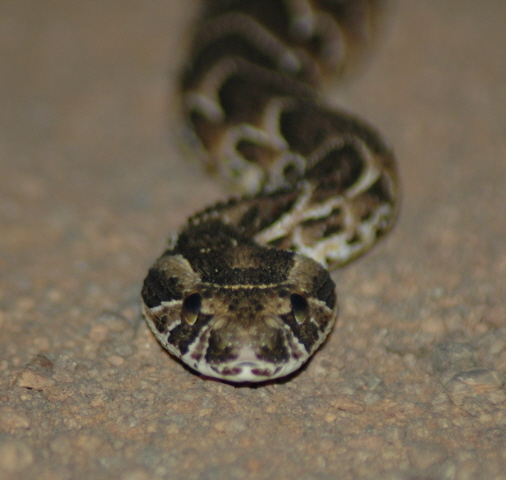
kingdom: Animalia
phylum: Chordata
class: Squamata
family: Viperidae
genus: Bitis
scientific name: Bitis arietans
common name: Puff adder
